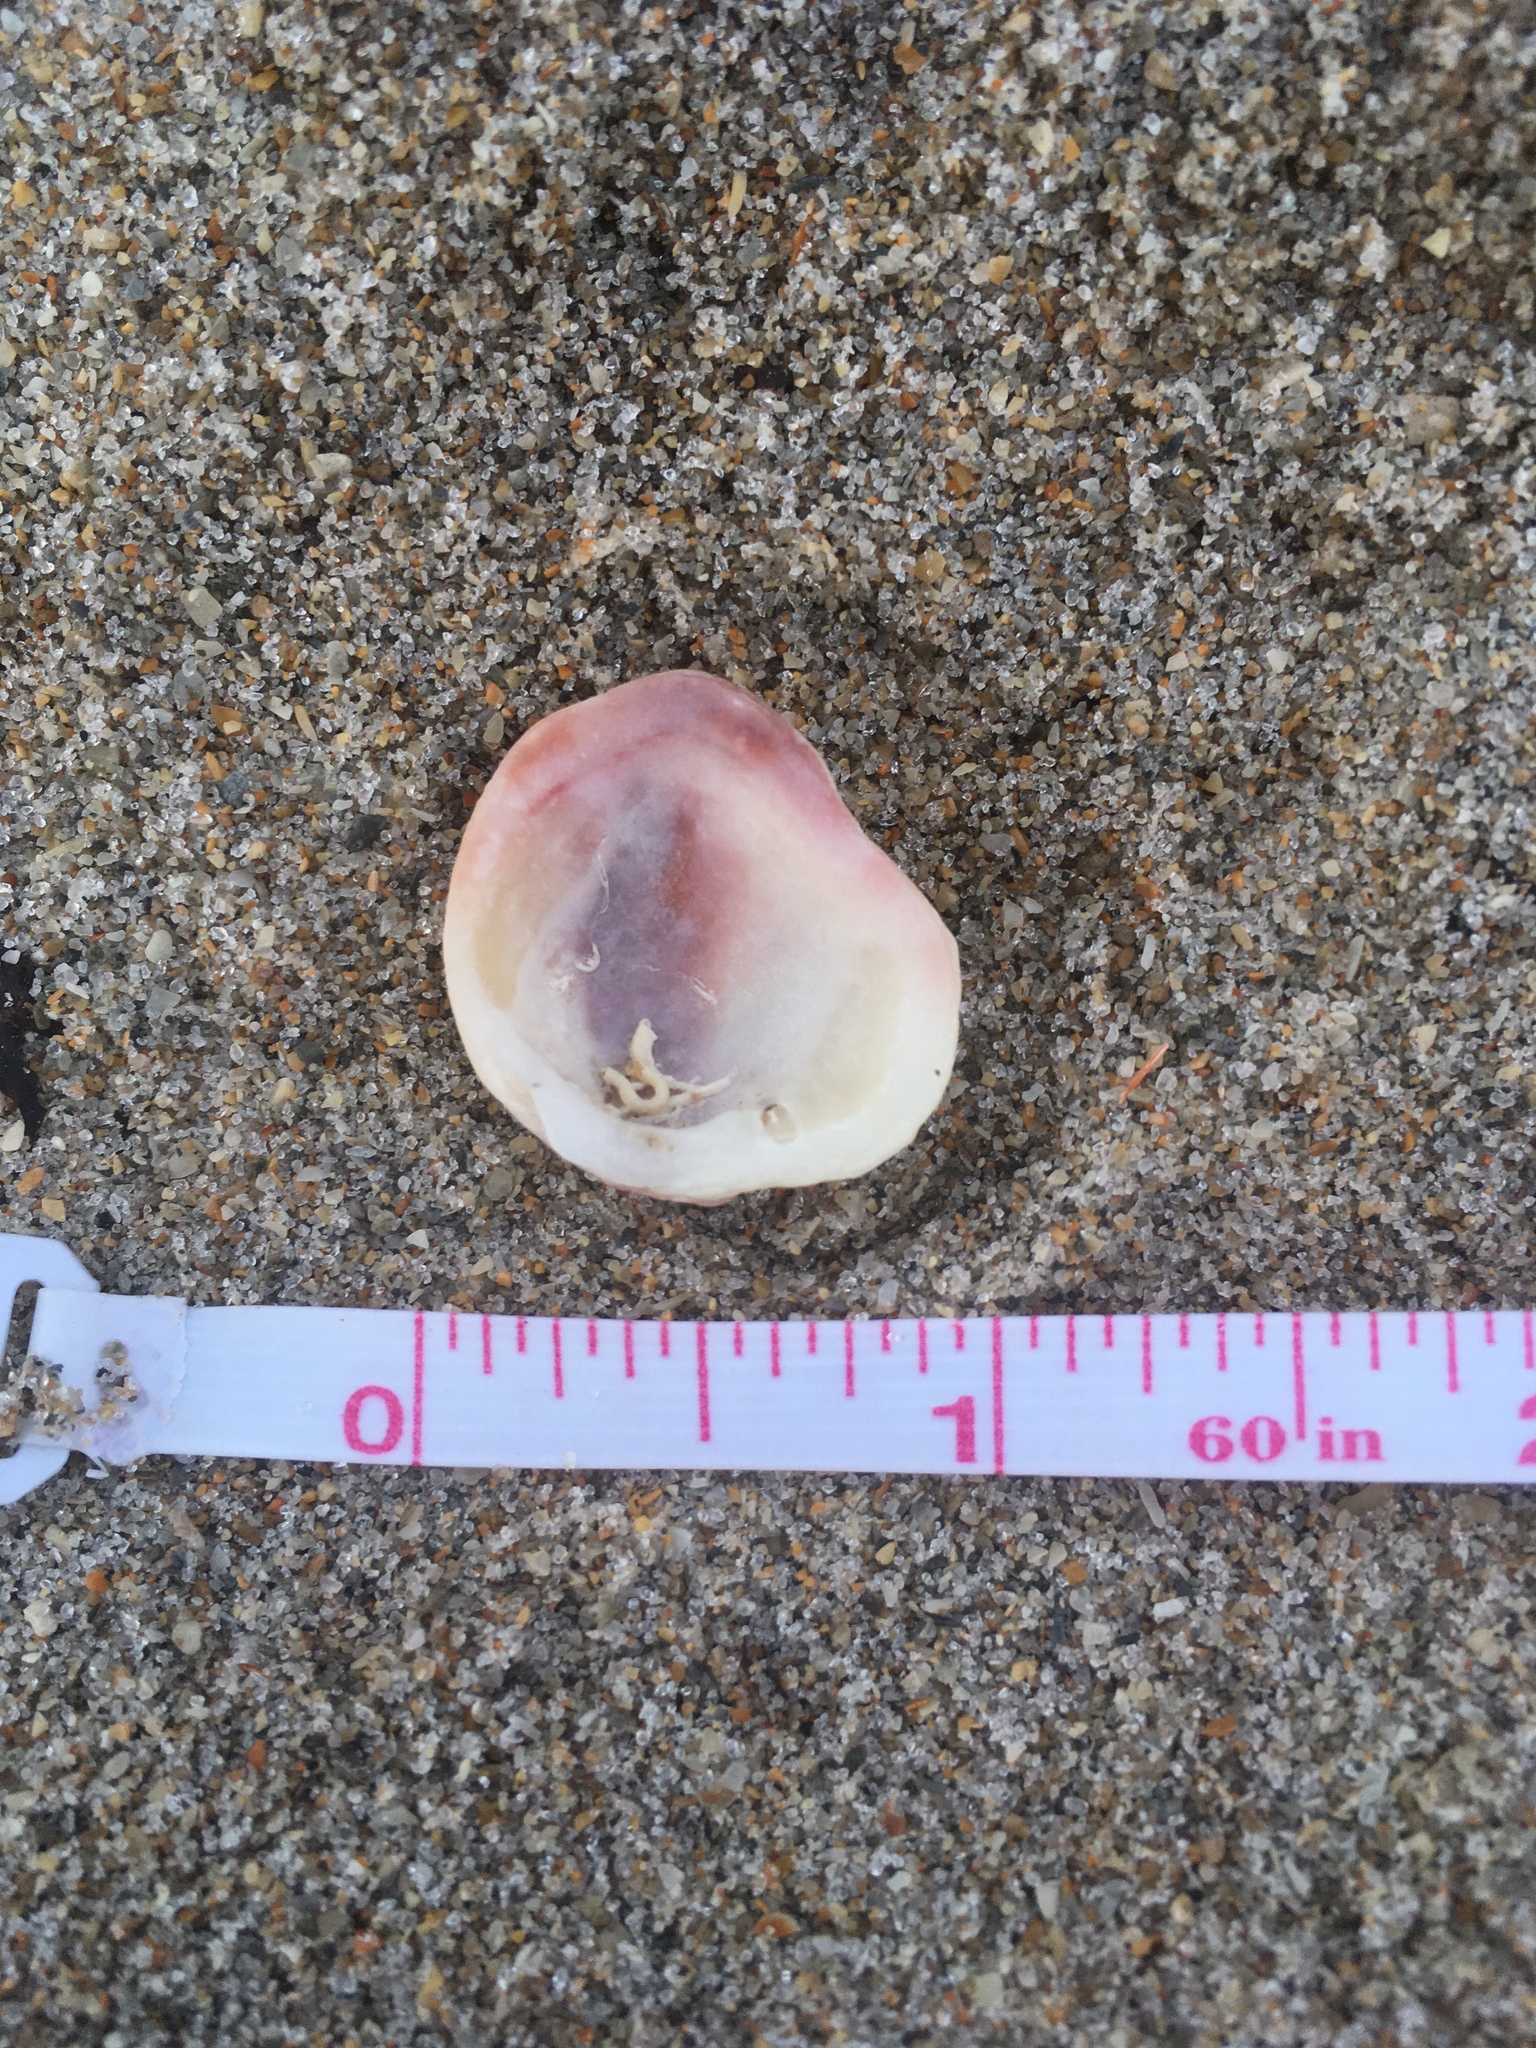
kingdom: Animalia
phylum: Mollusca
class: Bivalvia
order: Venerida
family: Chamidae
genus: Chama
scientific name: Chama congregata
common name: Corrugate jewelbox
